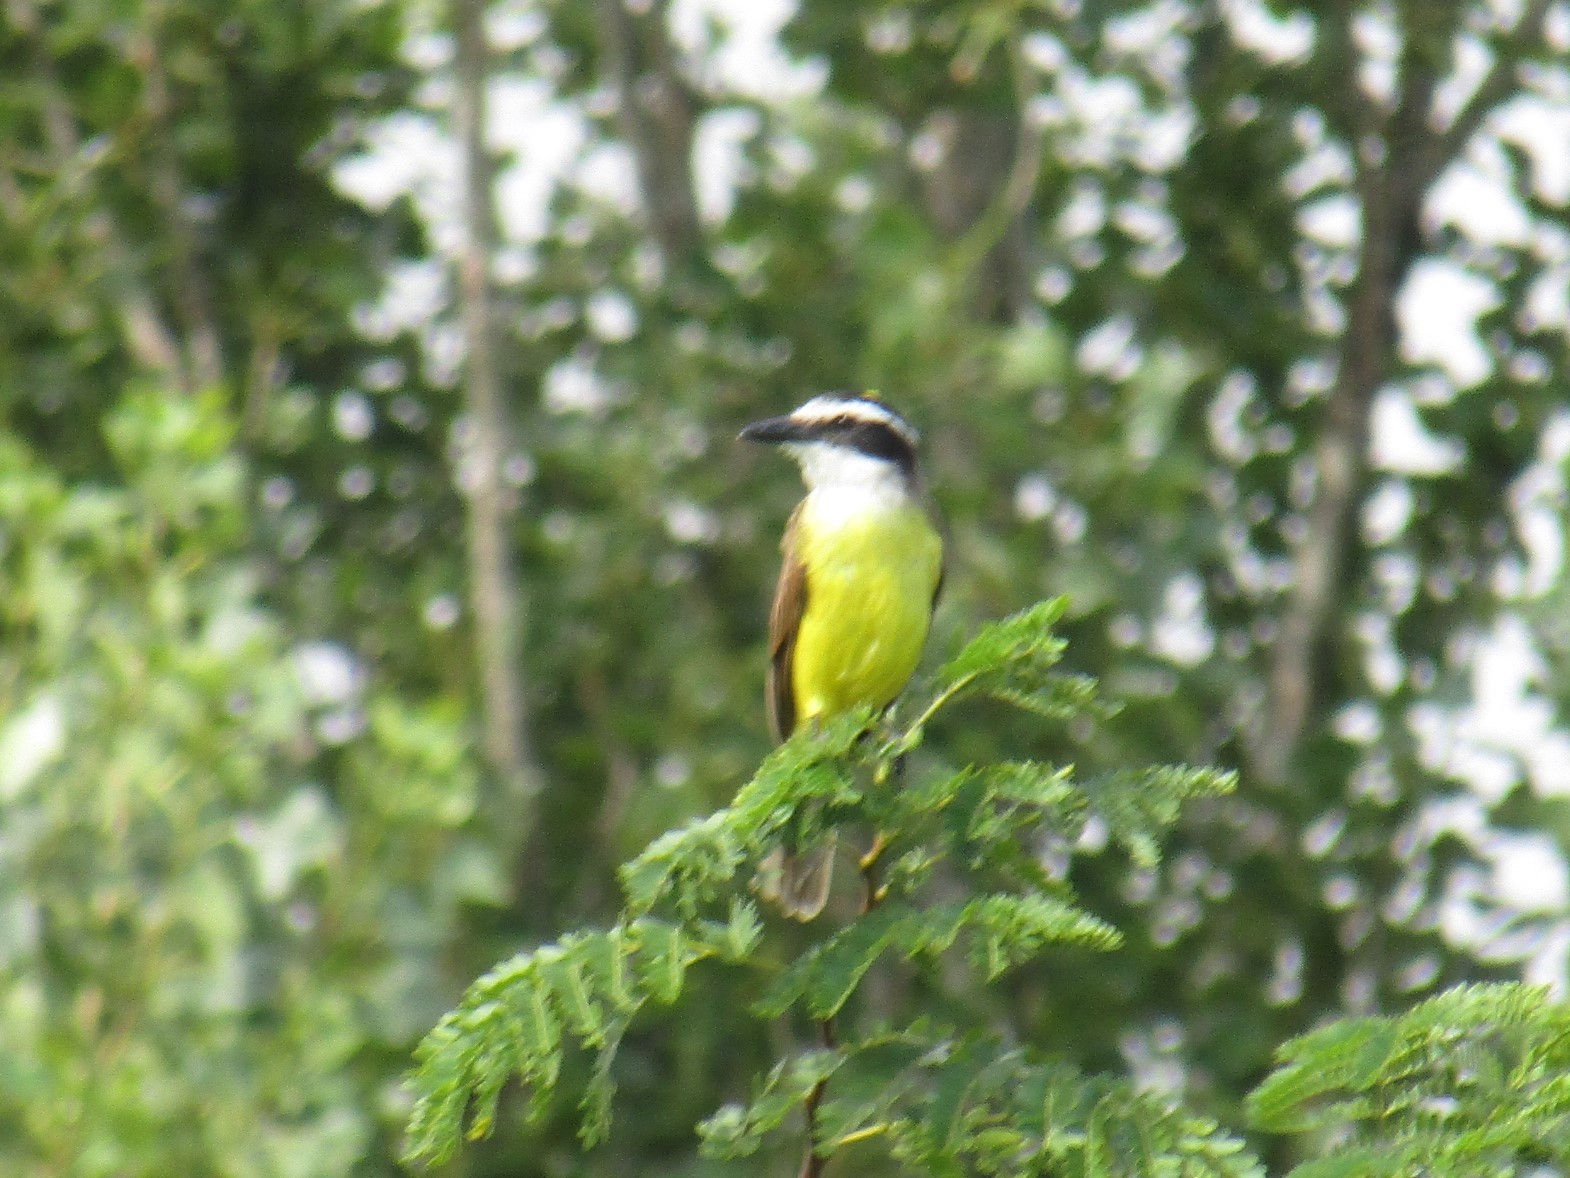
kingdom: Animalia
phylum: Chordata
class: Aves
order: Passeriformes
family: Tyrannidae
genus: Pitangus
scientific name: Pitangus sulphuratus
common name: Great kiskadee
